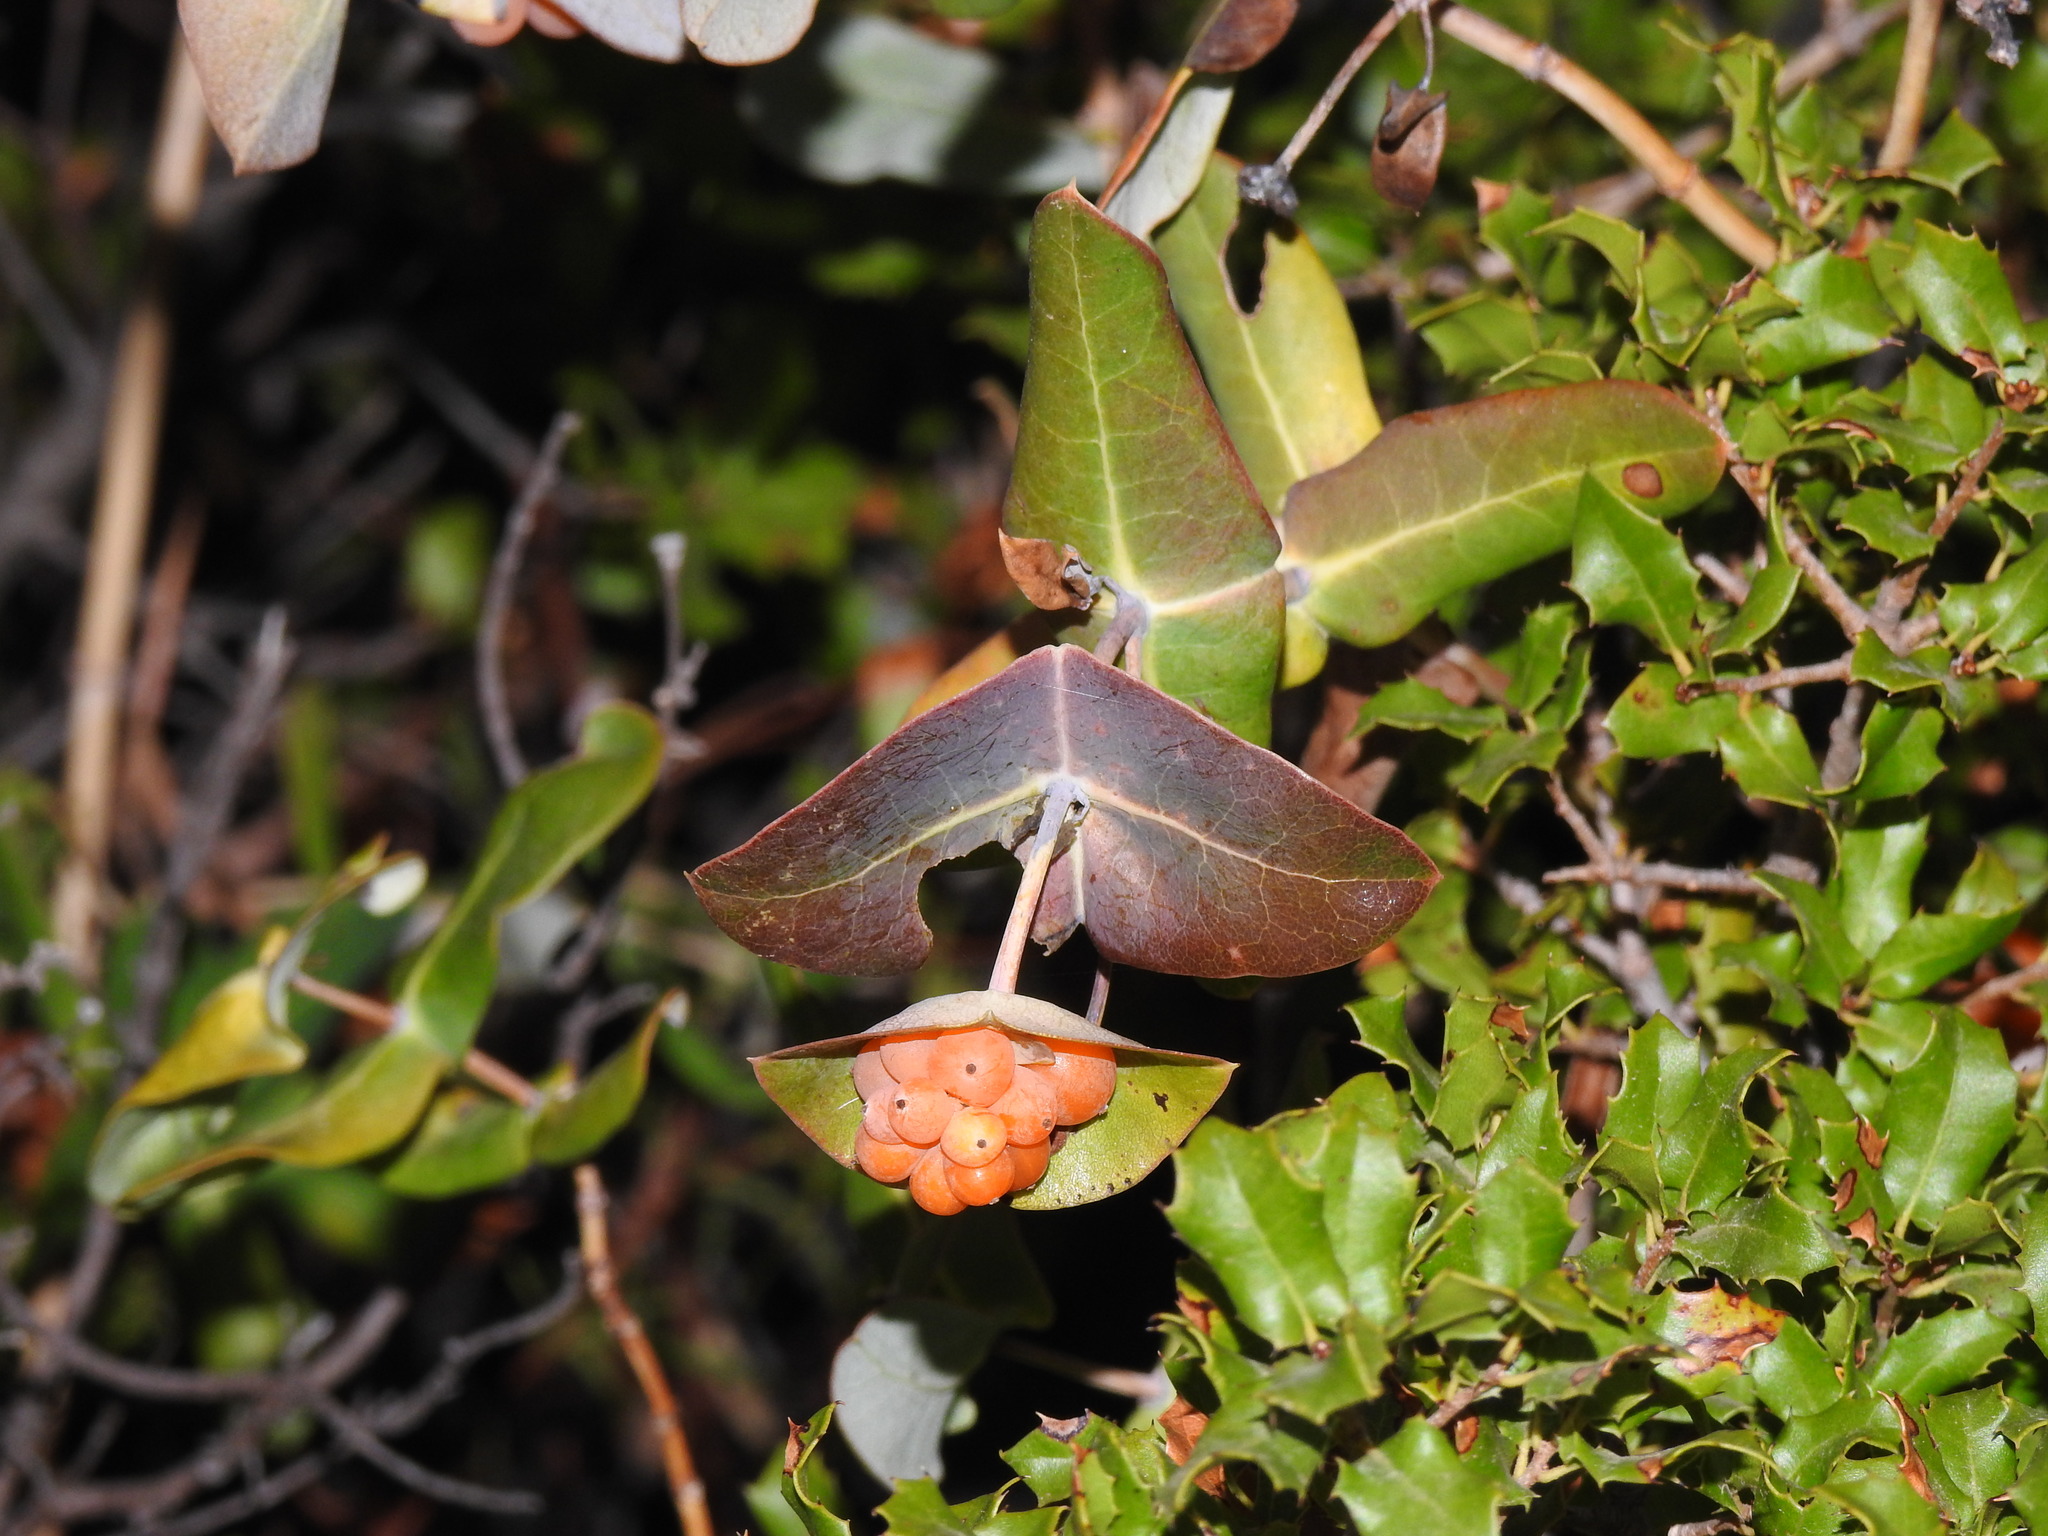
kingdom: Plantae
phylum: Tracheophyta
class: Magnoliopsida
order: Dipsacales
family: Caprifoliaceae
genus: Lonicera
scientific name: Lonicera implexa
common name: Minorca honeysuckle
